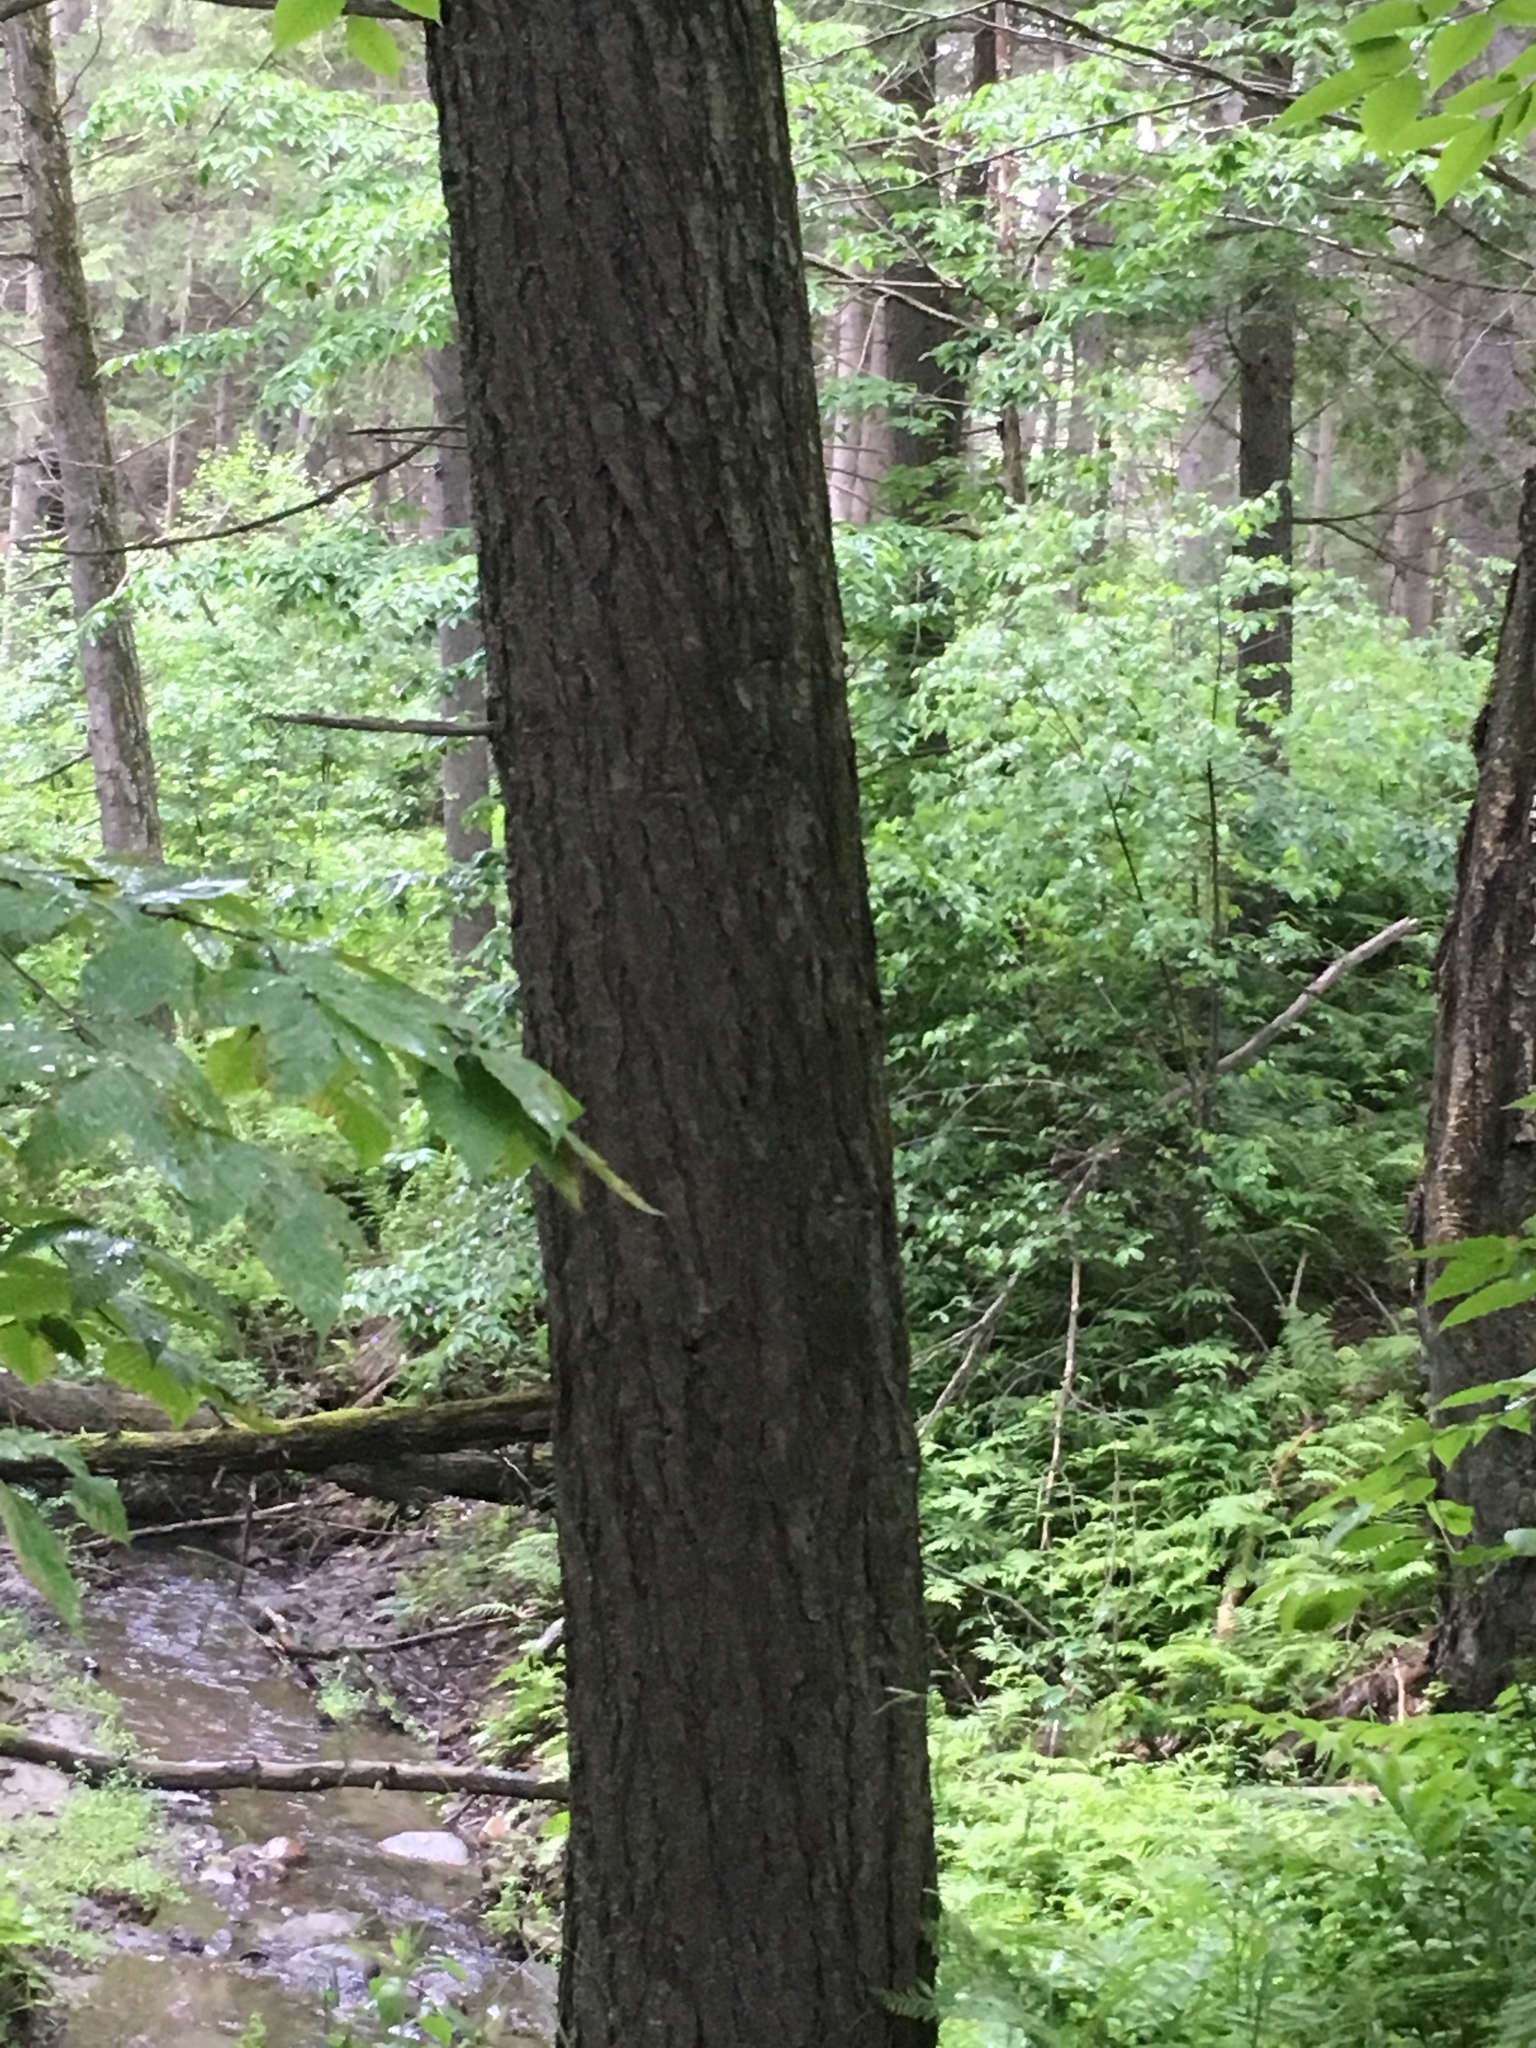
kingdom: Plantae
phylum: Tracheophyta
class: Pinopsida
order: Pinales
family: Pinaceae
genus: Tsuga
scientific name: Tsuga canadensis
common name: Eastern hemlock
